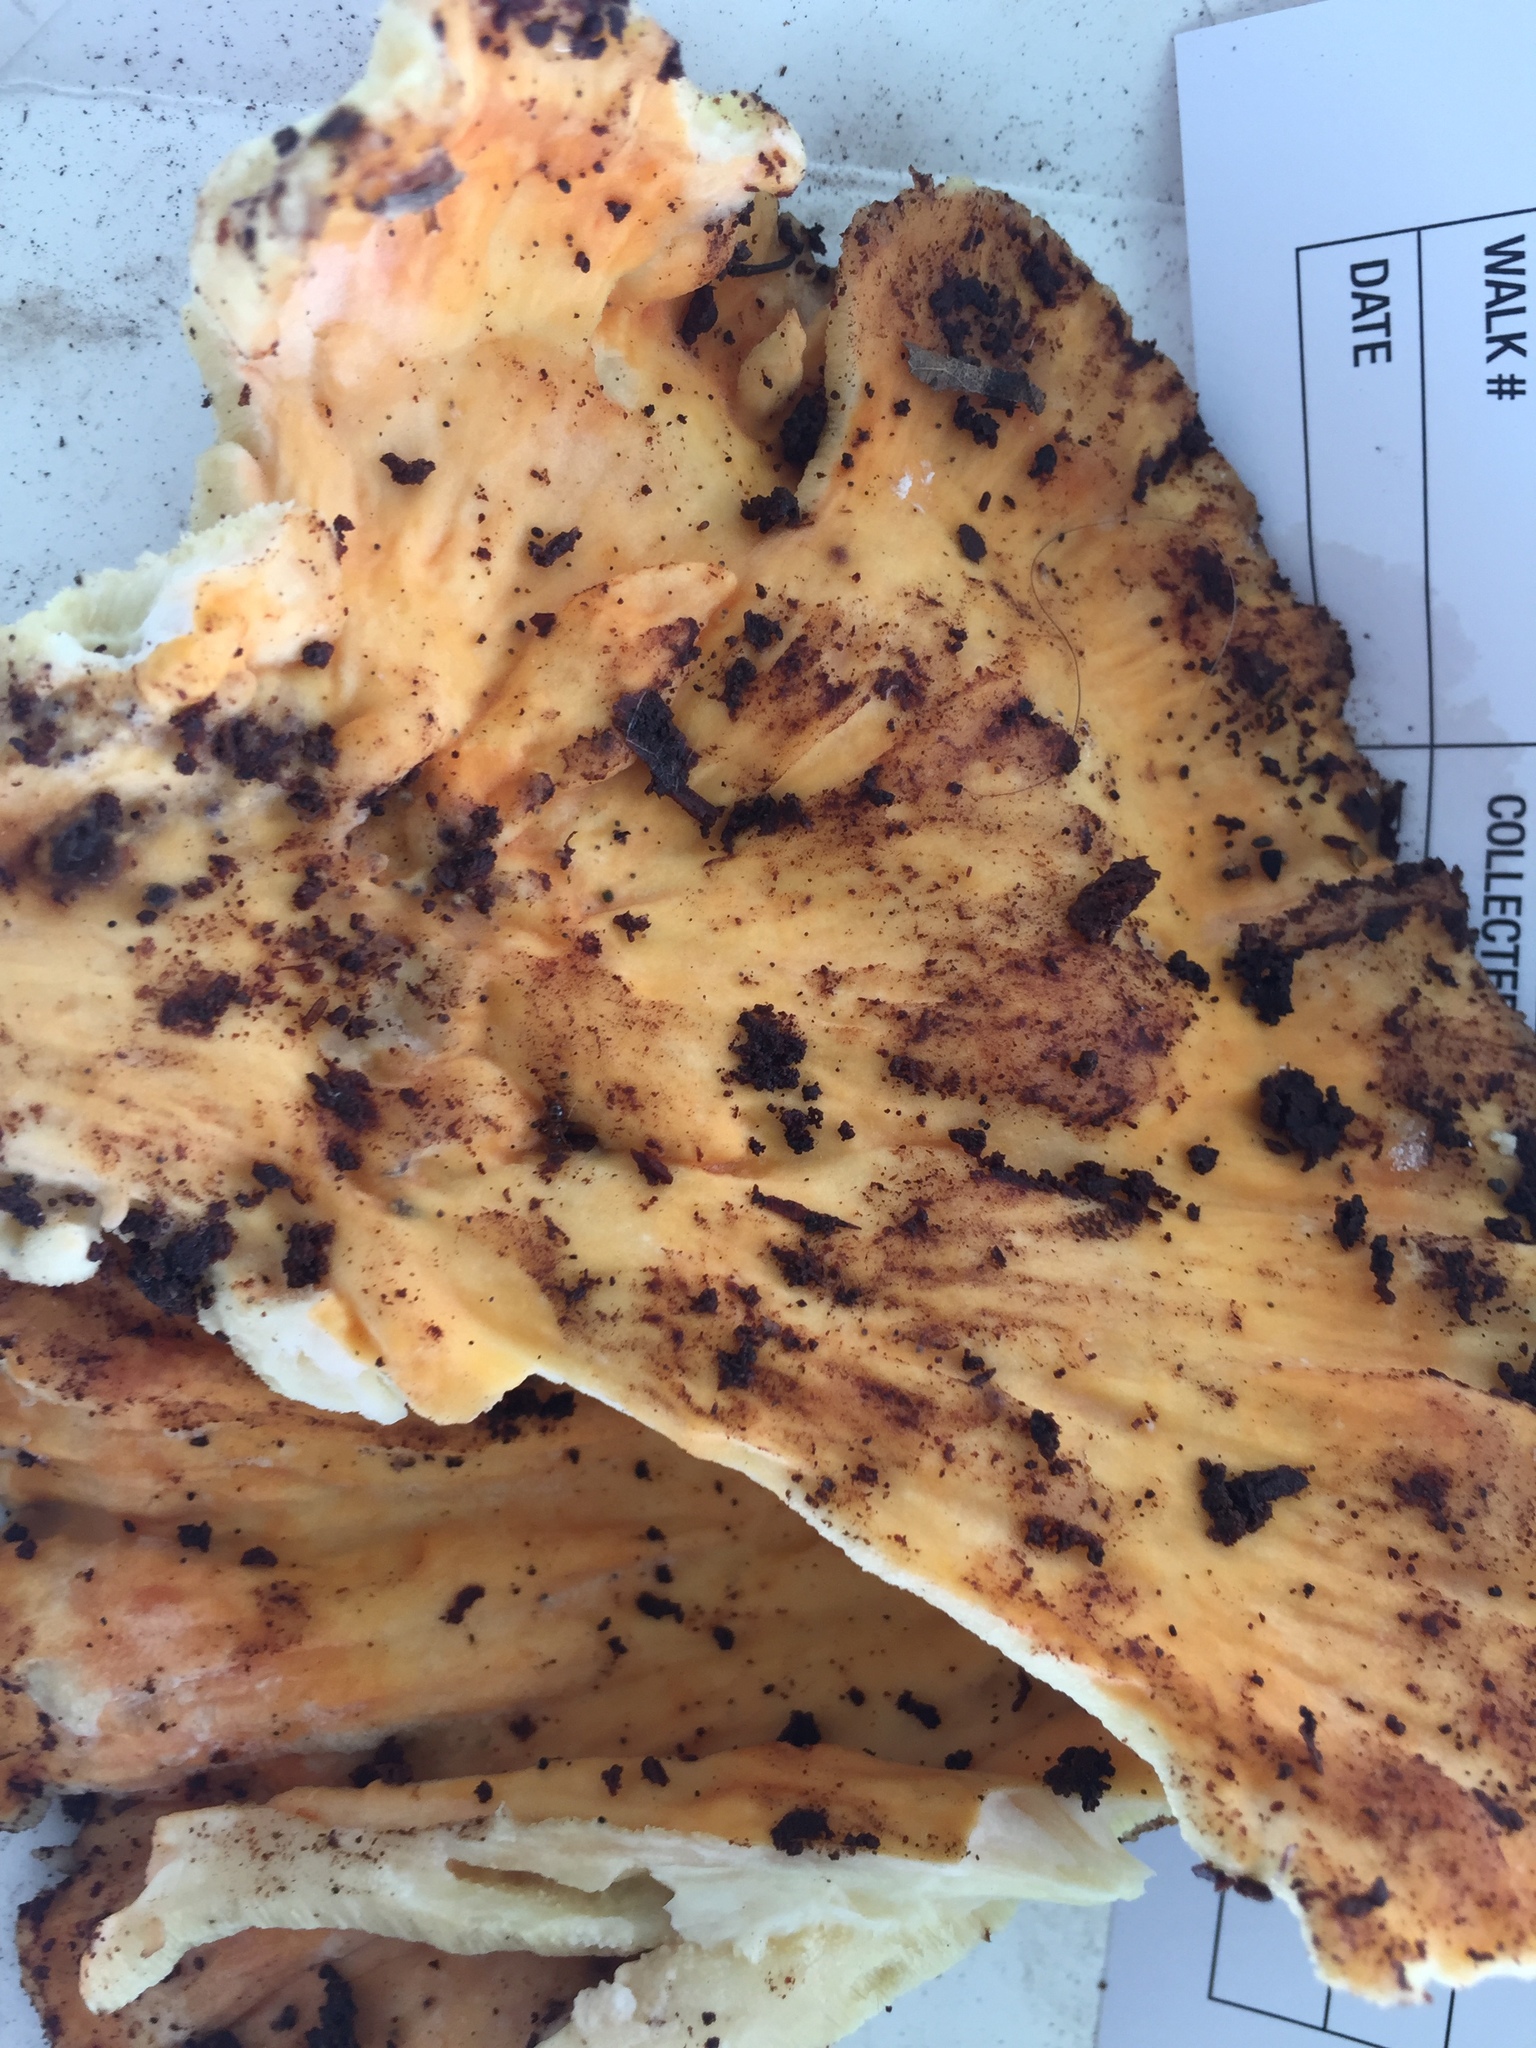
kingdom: Fungi
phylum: Basidiomycota
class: Agaricomycetes
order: Polyporales
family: Laetiporaceae
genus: Laetiporus
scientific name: Laetiporus sulphureus
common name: Chicken of the woods
